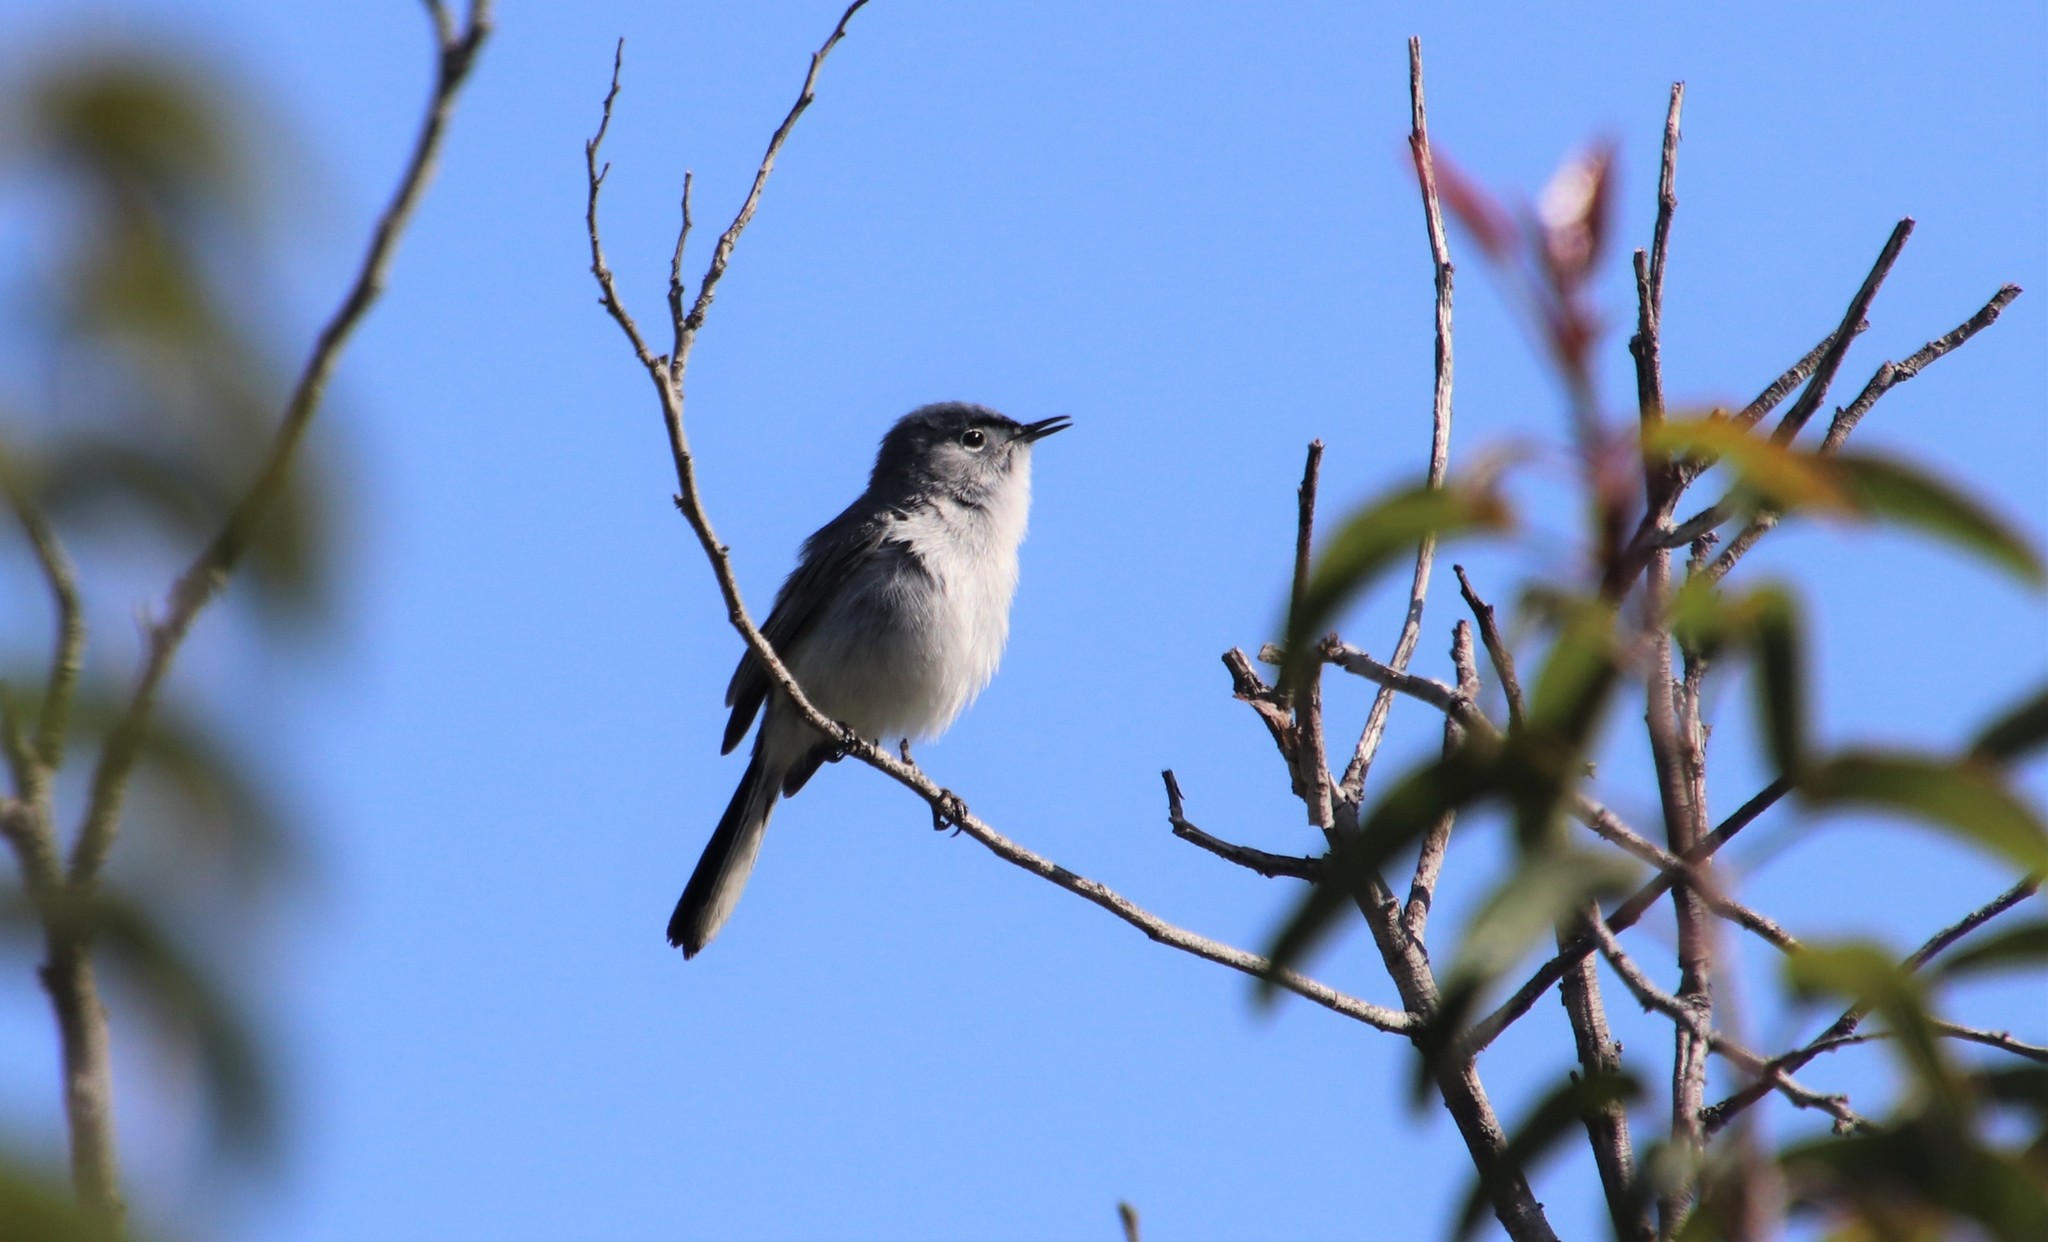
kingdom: Animalia
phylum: Chordata
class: Aves
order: Passeriformes
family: Polioptilidae
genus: Polioptila
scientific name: Polioptila caerulea
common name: Blue-gray gnatcatcher
